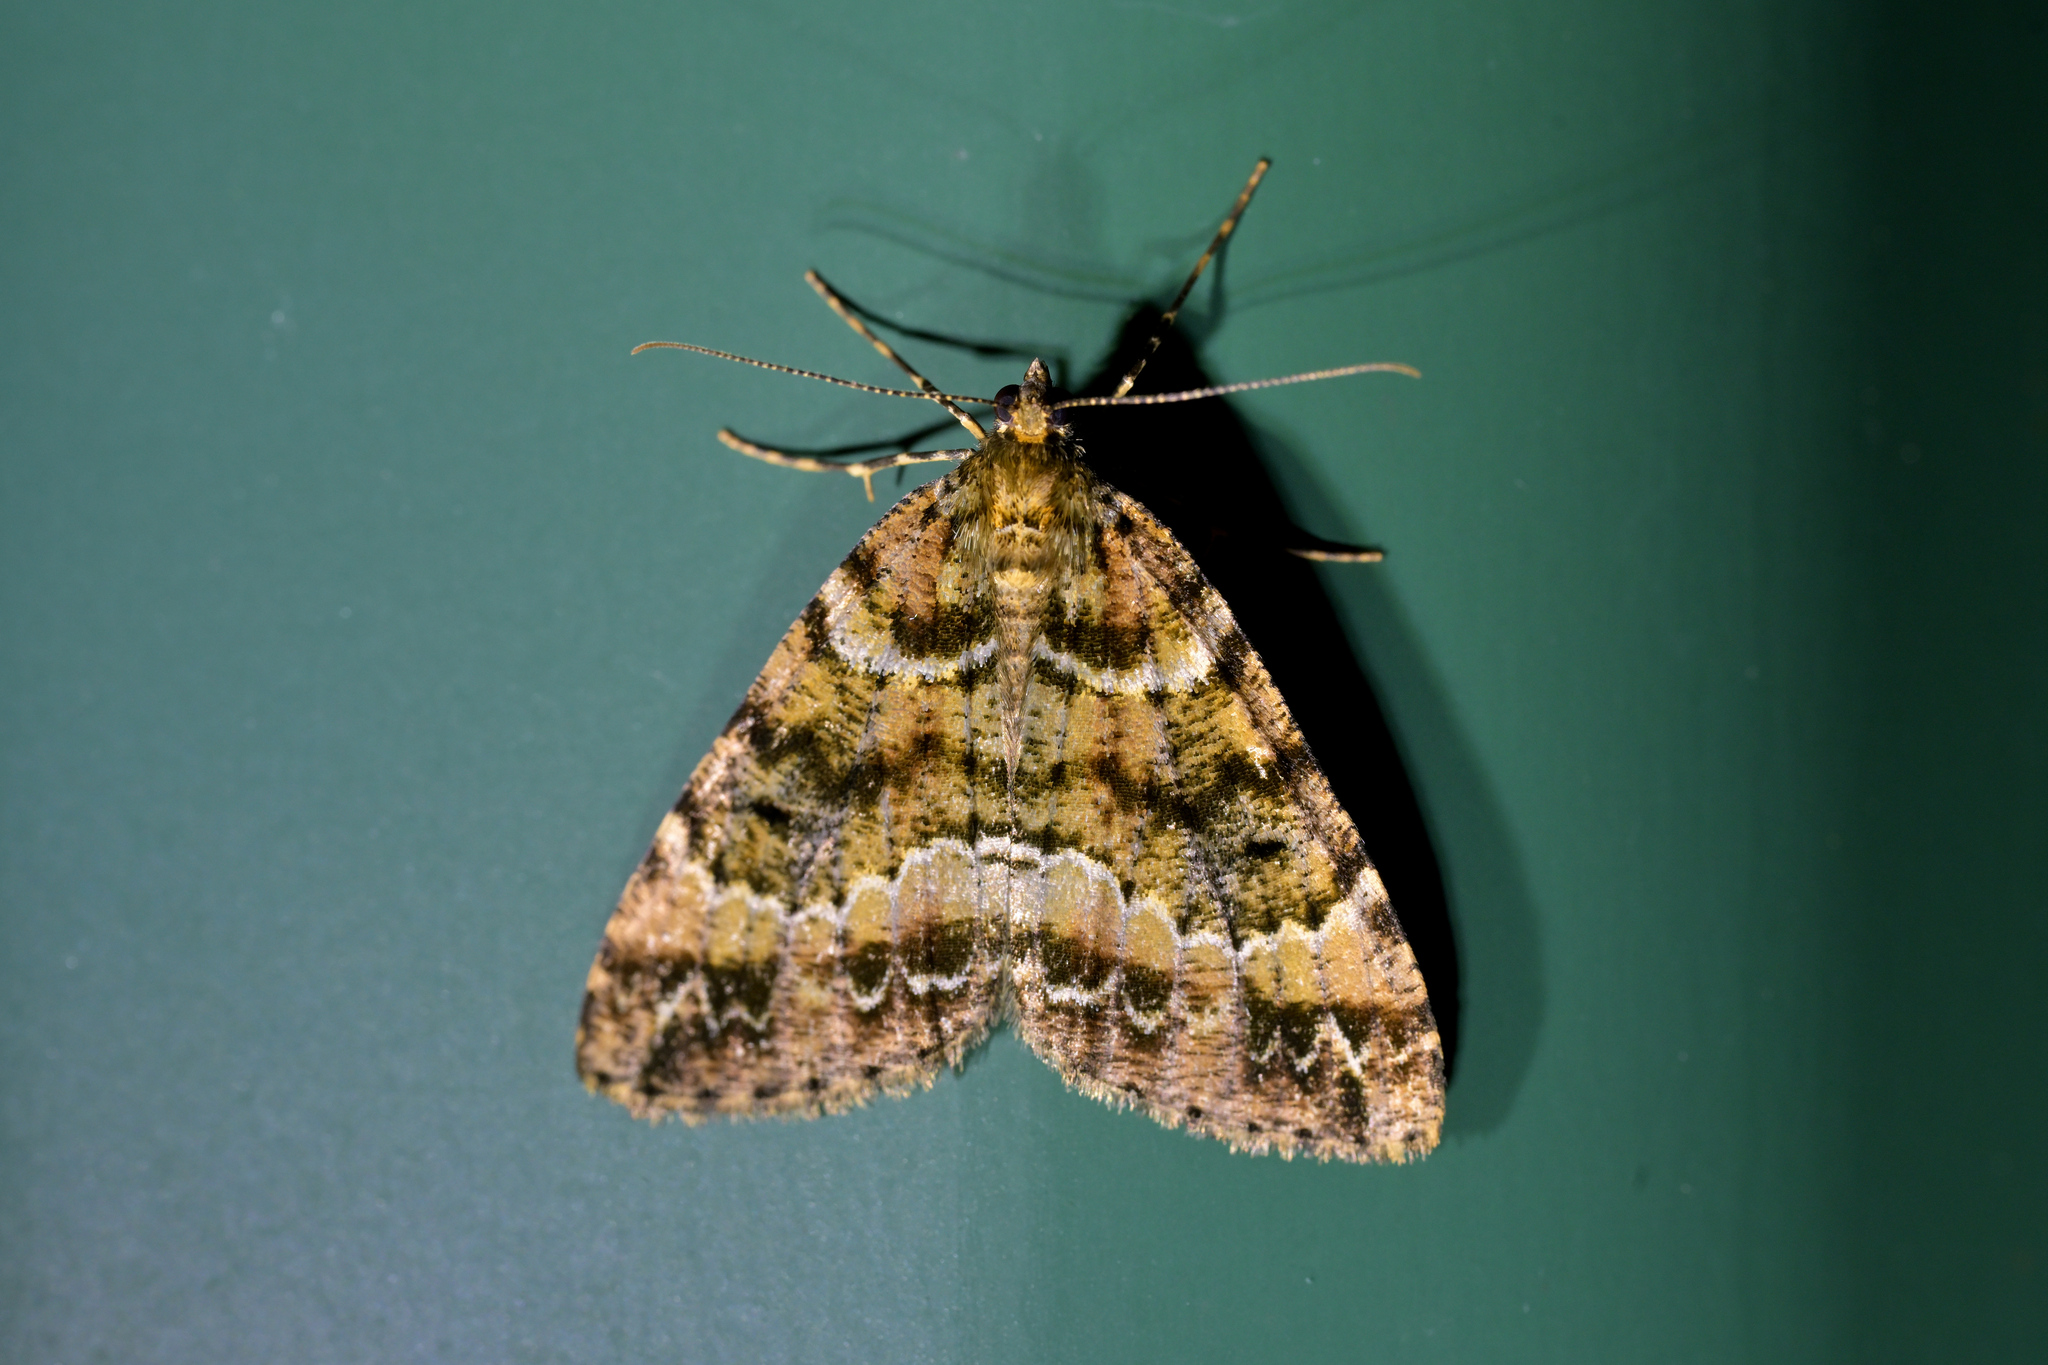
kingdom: Animalia
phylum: Arthropoda
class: Insecta
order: Lepidoptera
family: Geometridae
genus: Pseudocoremia
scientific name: Pseudocoremia productata
